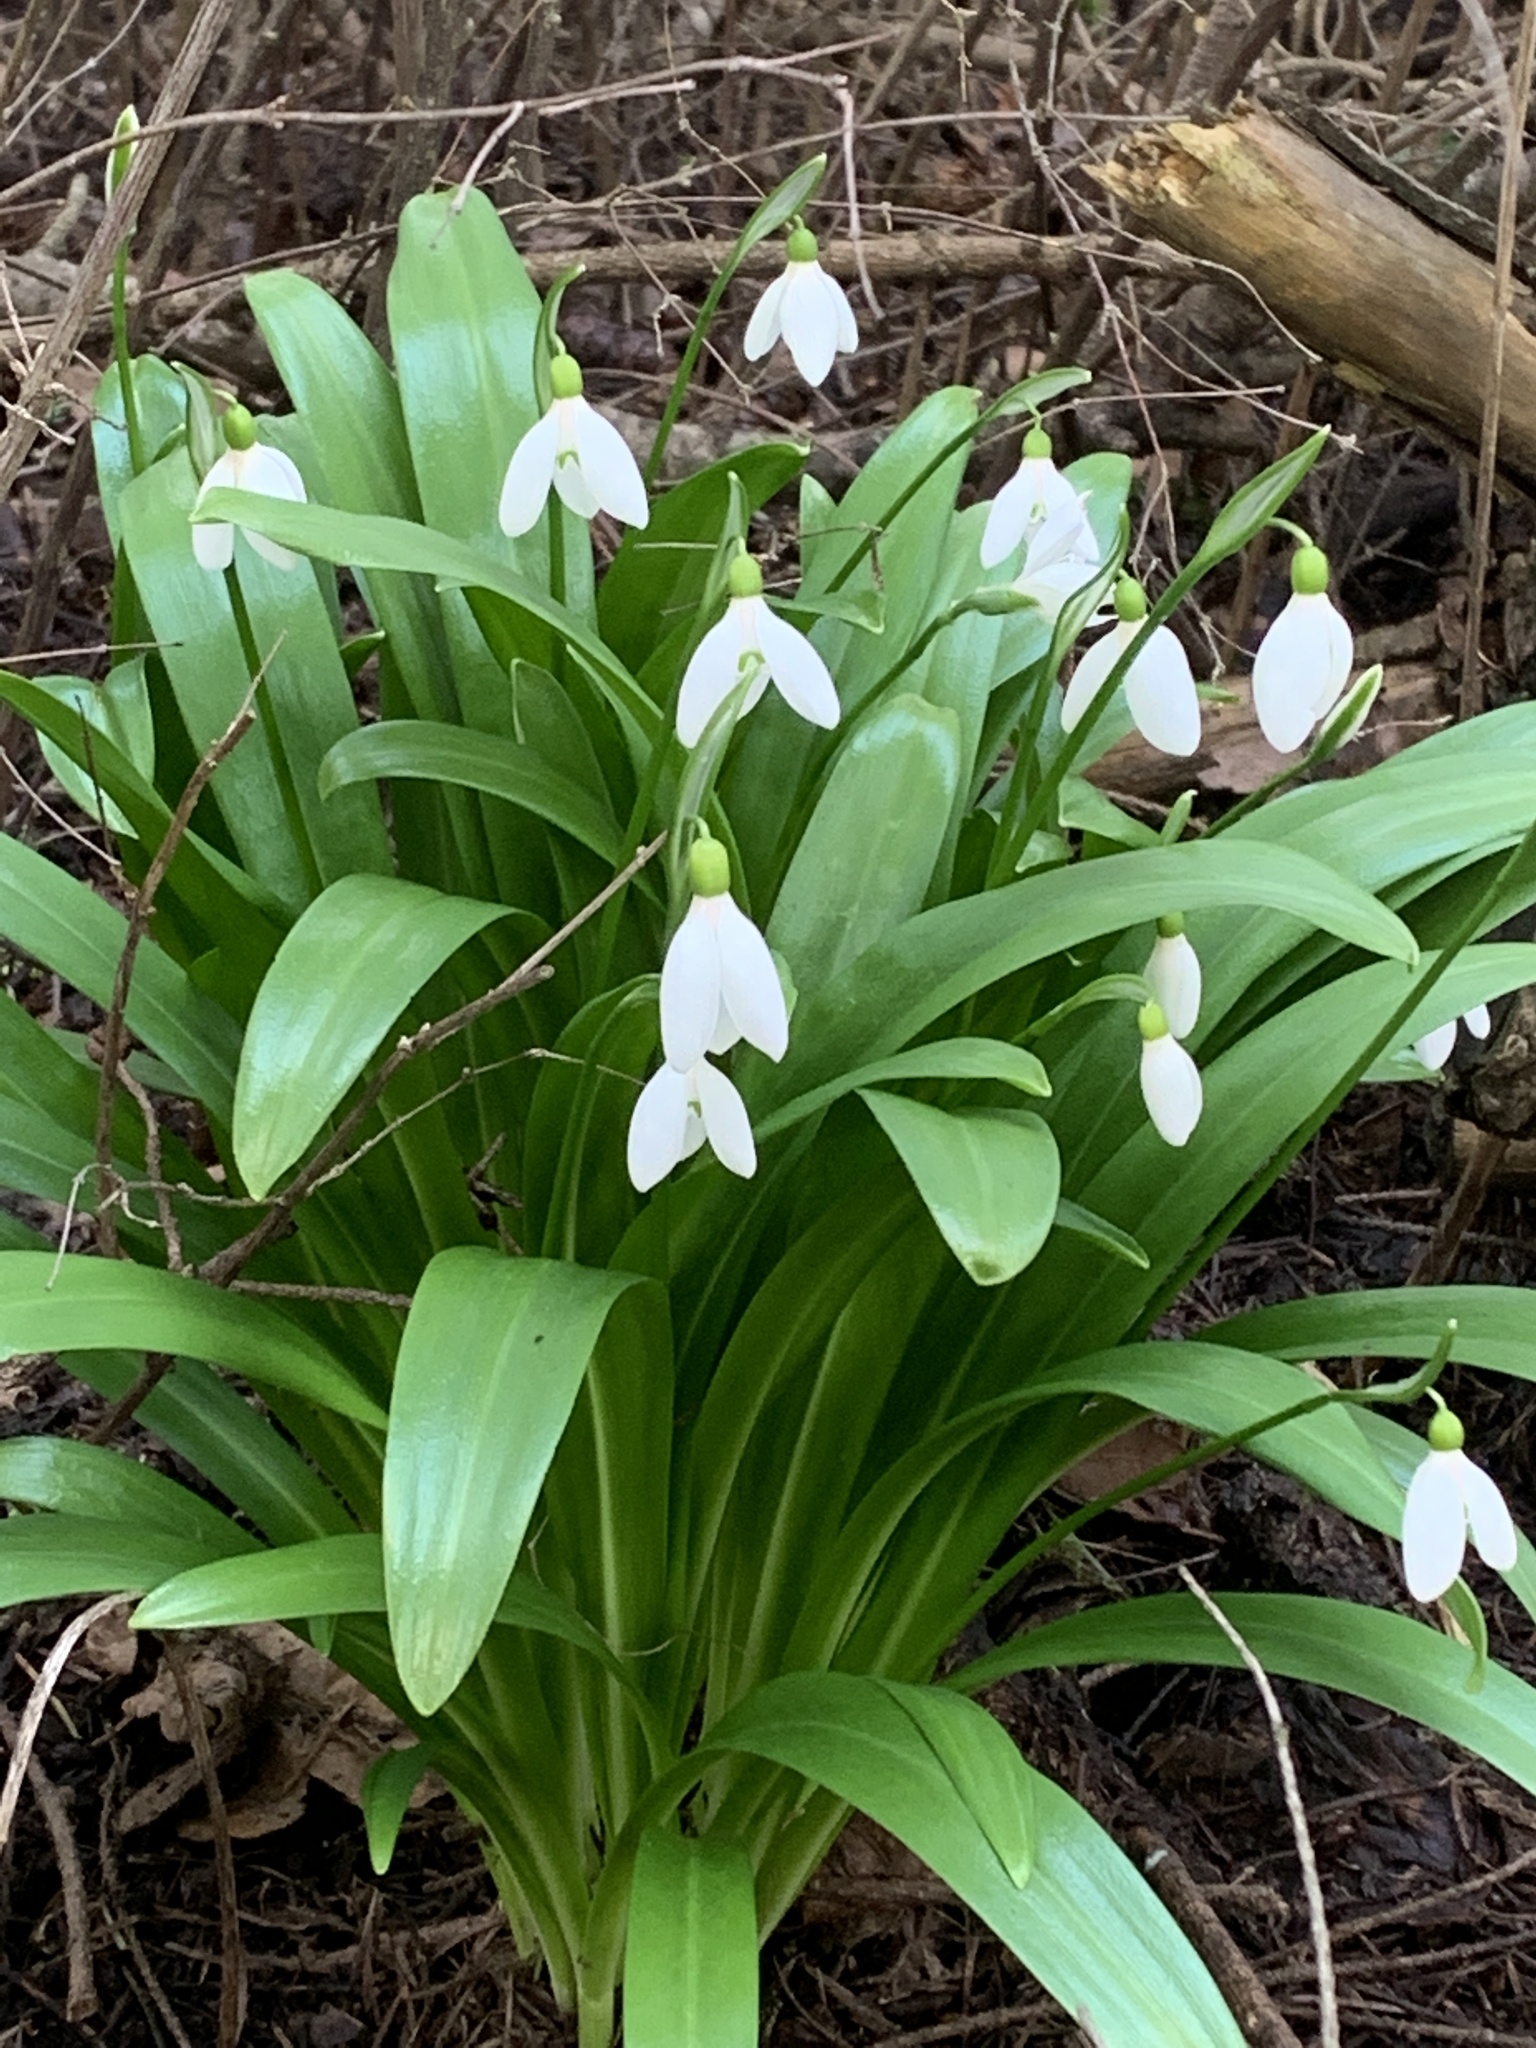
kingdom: Plantae
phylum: Tracheophyta
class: Liliopsida
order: Asparagales
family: Amaryllidaceae
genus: Galanthus
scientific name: Galanthus woronowii
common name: Green snowdrop
